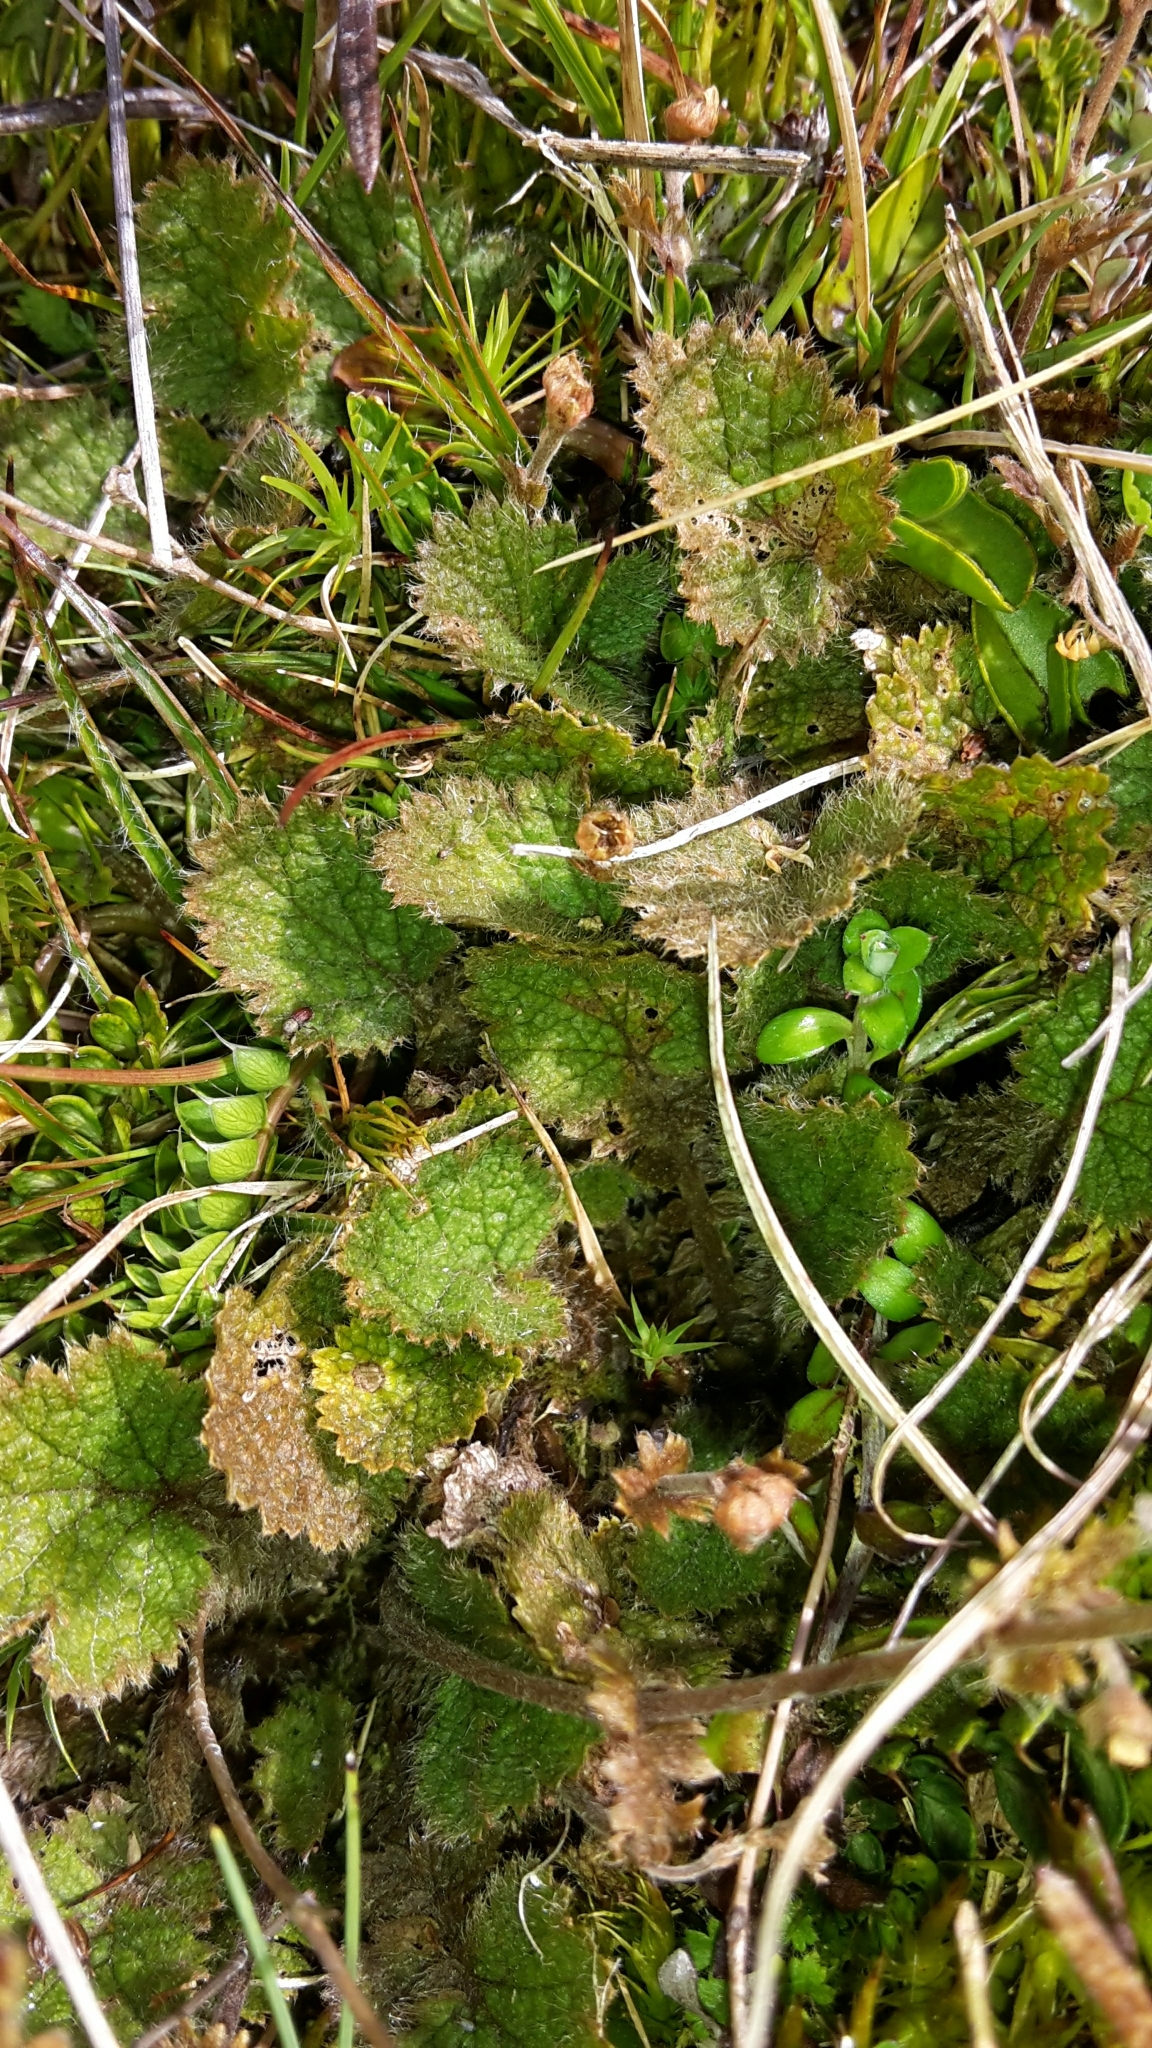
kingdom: Plantae
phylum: Tracheophyta
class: Magnoliopsida
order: Rosales
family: Rosaceae
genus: Geum
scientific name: Geum leiospermum
